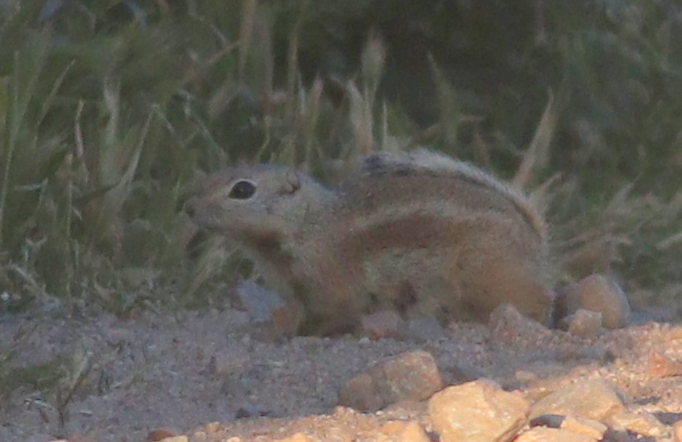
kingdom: Animalia
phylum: Chordata
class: Mammalia
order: Rodentia
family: Sciuridae
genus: Ammospermophilus
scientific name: Ammospermophilus nelsoni
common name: Nelson's antelope squirrel
